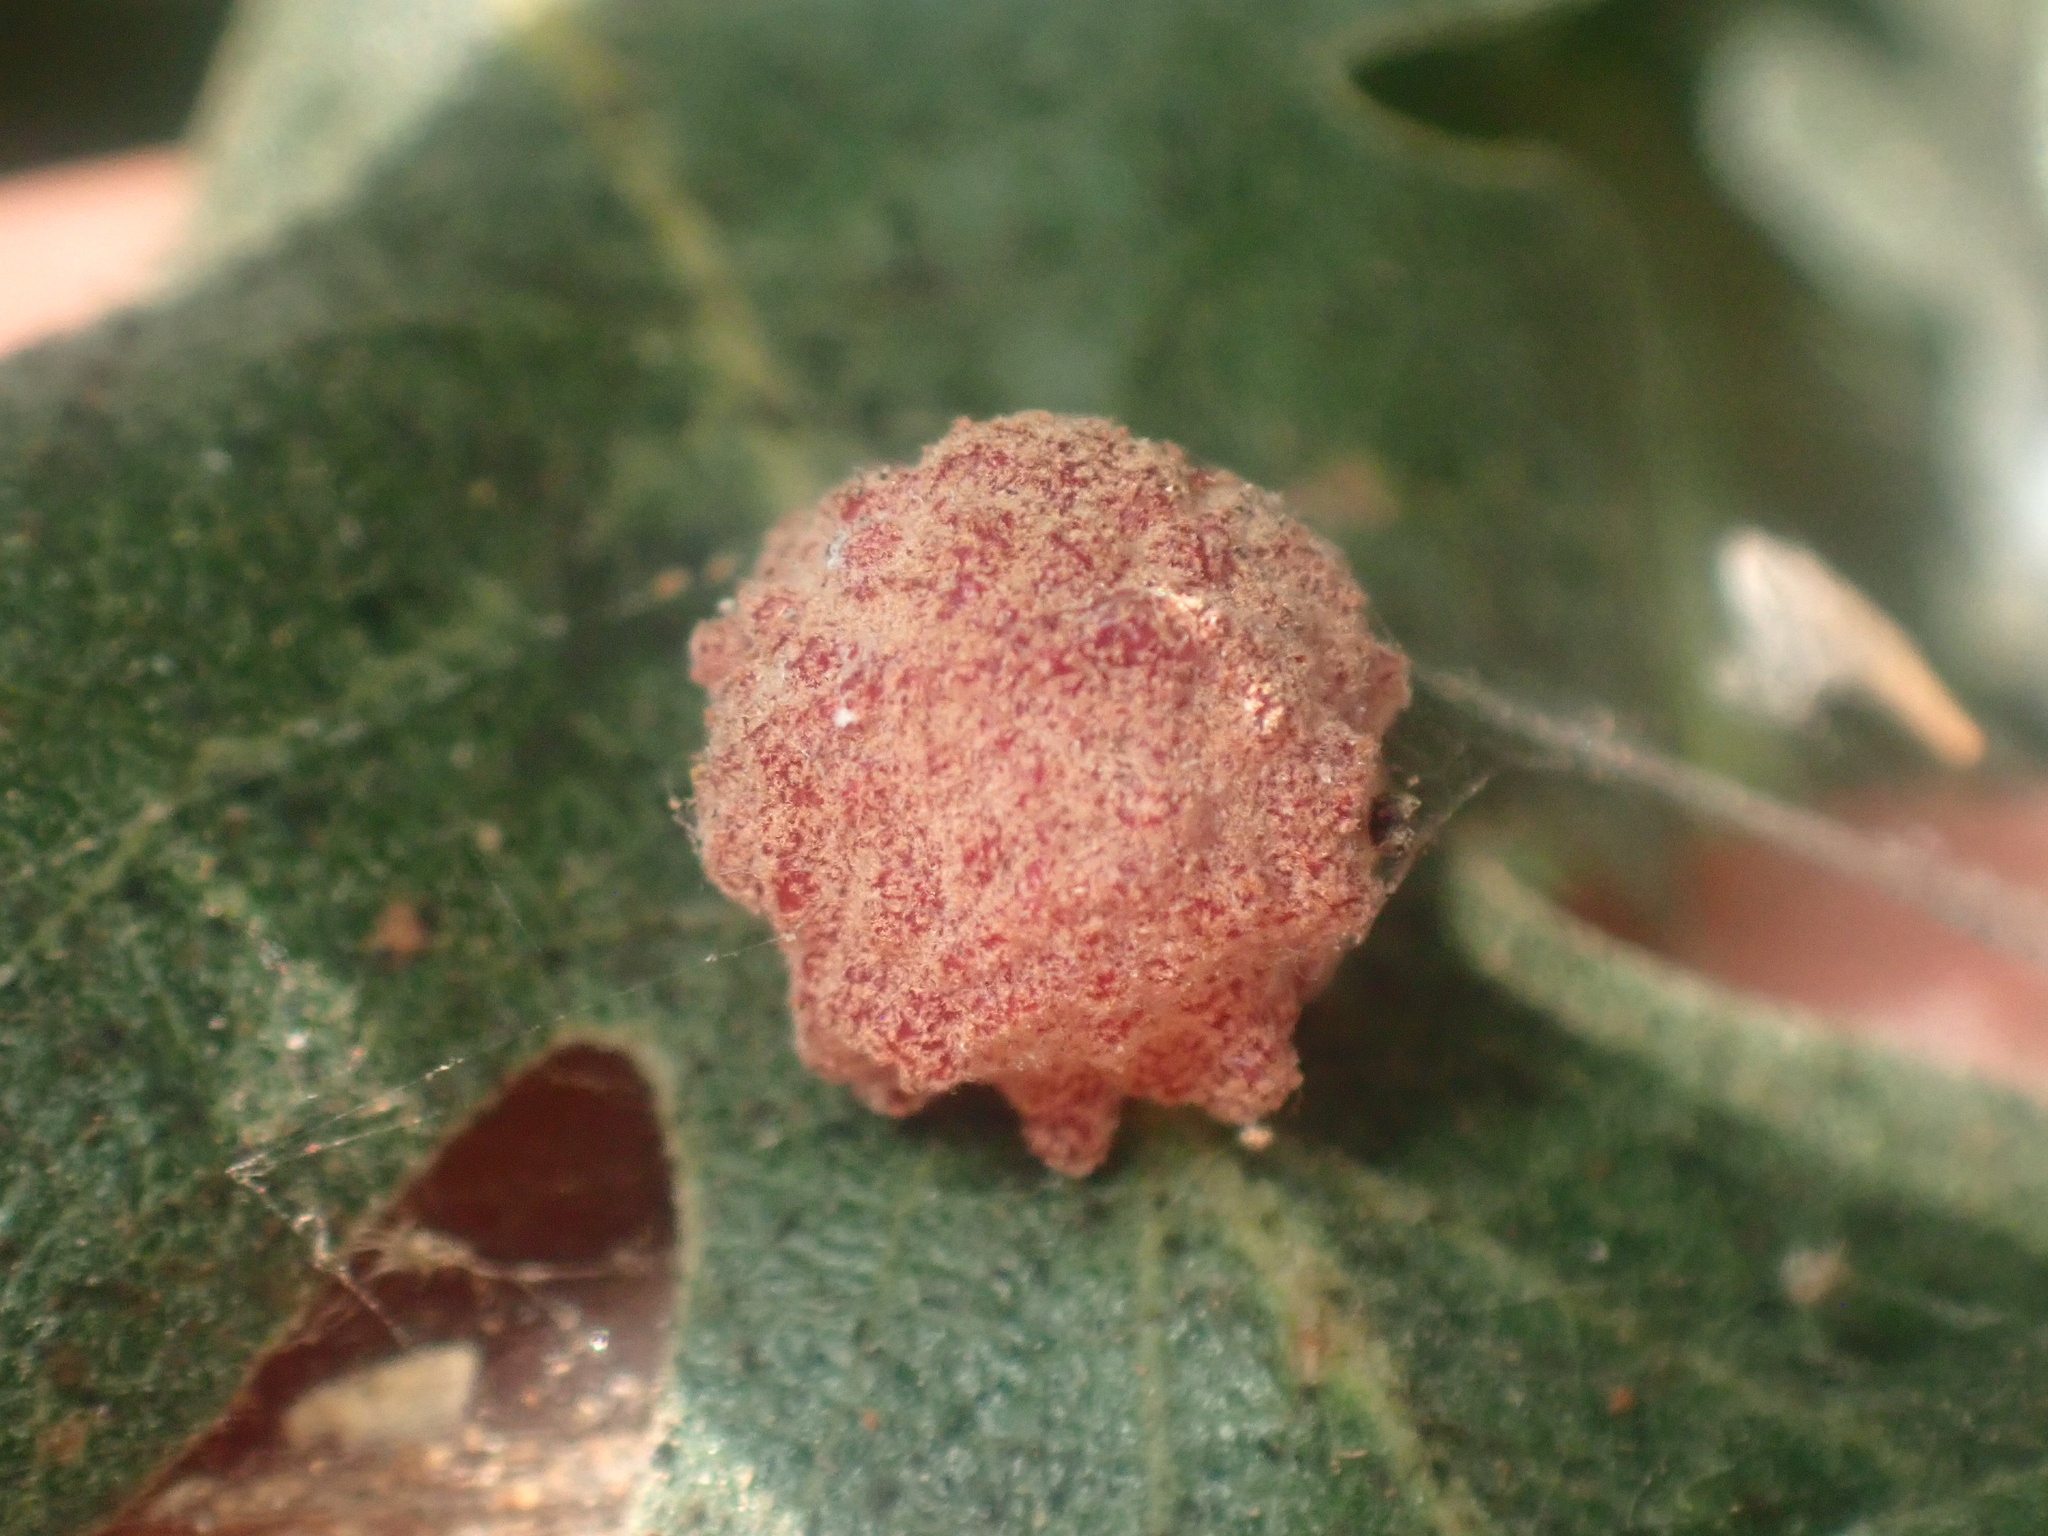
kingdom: Animalia
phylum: Arthropoda
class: Insecta
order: Hymenoptera
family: Cynipidae
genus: Cynips
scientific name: Cynips conspicua
